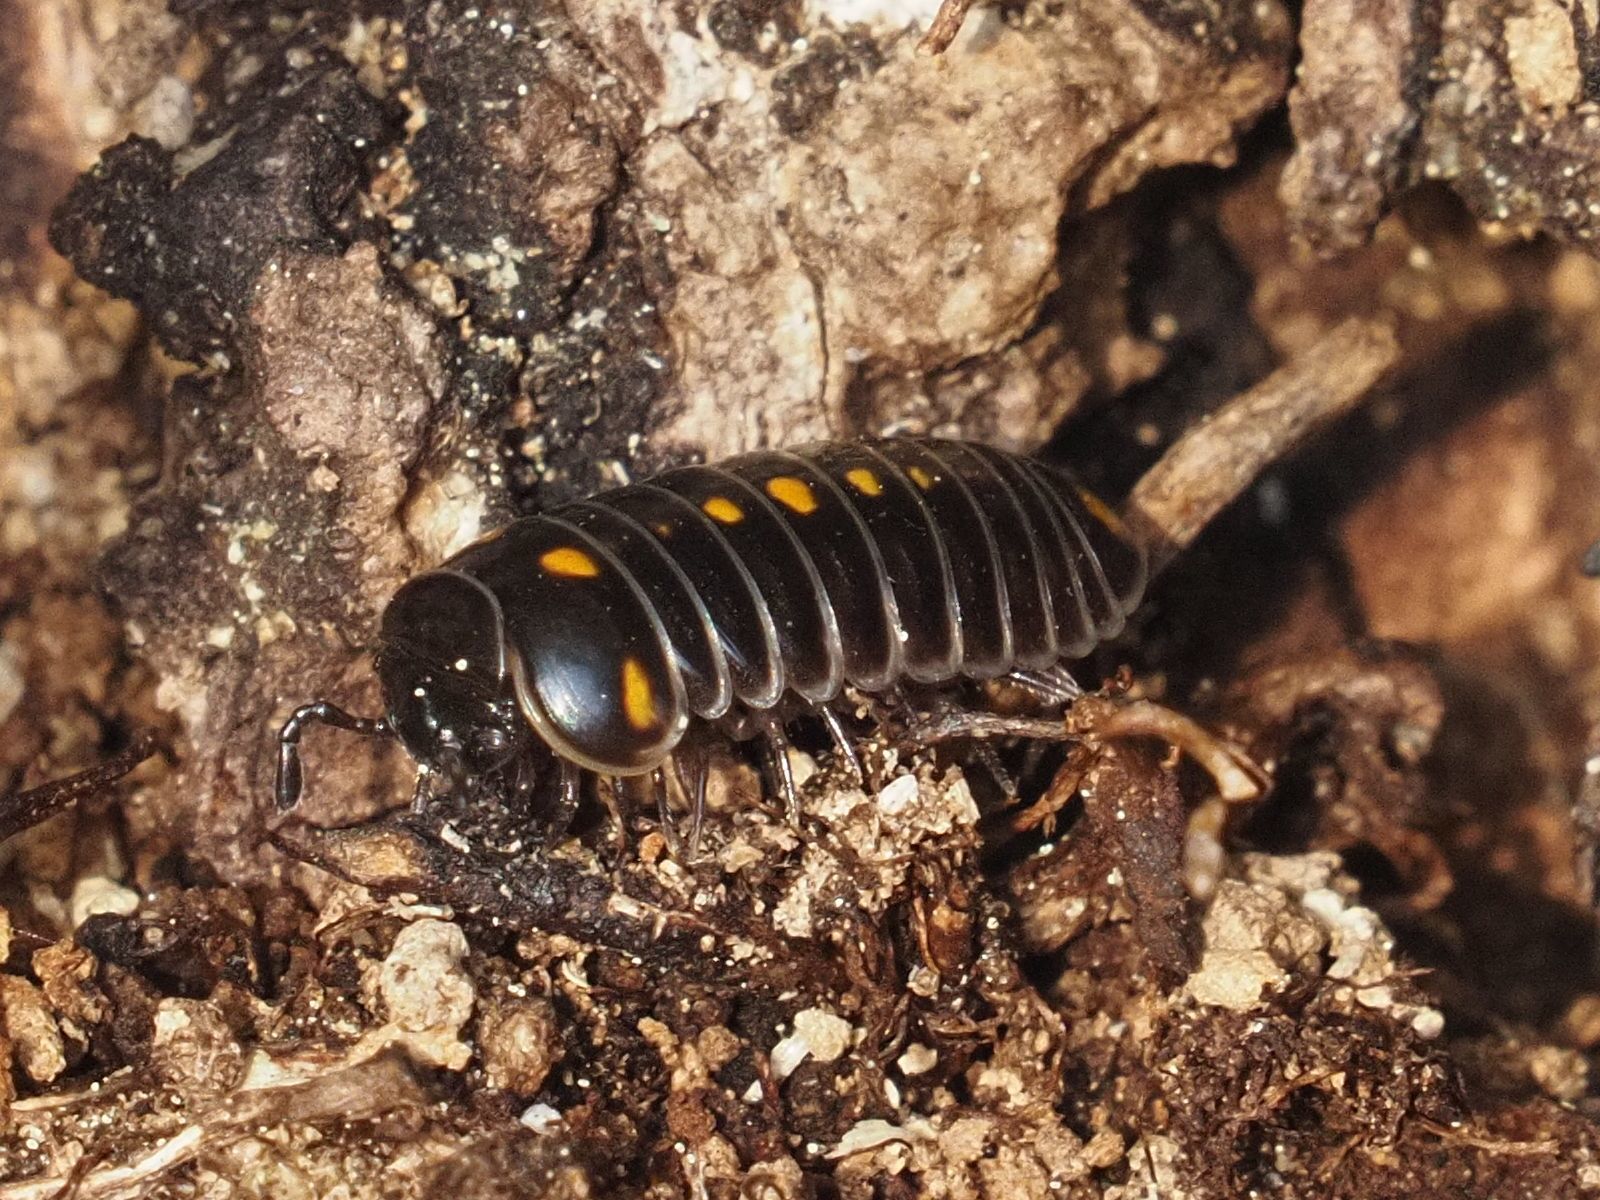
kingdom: Animalia
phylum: Arthropoda
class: Diplopoda
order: Glomerida
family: Glomeridae
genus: Glomeris
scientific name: Glomeris pustulata
